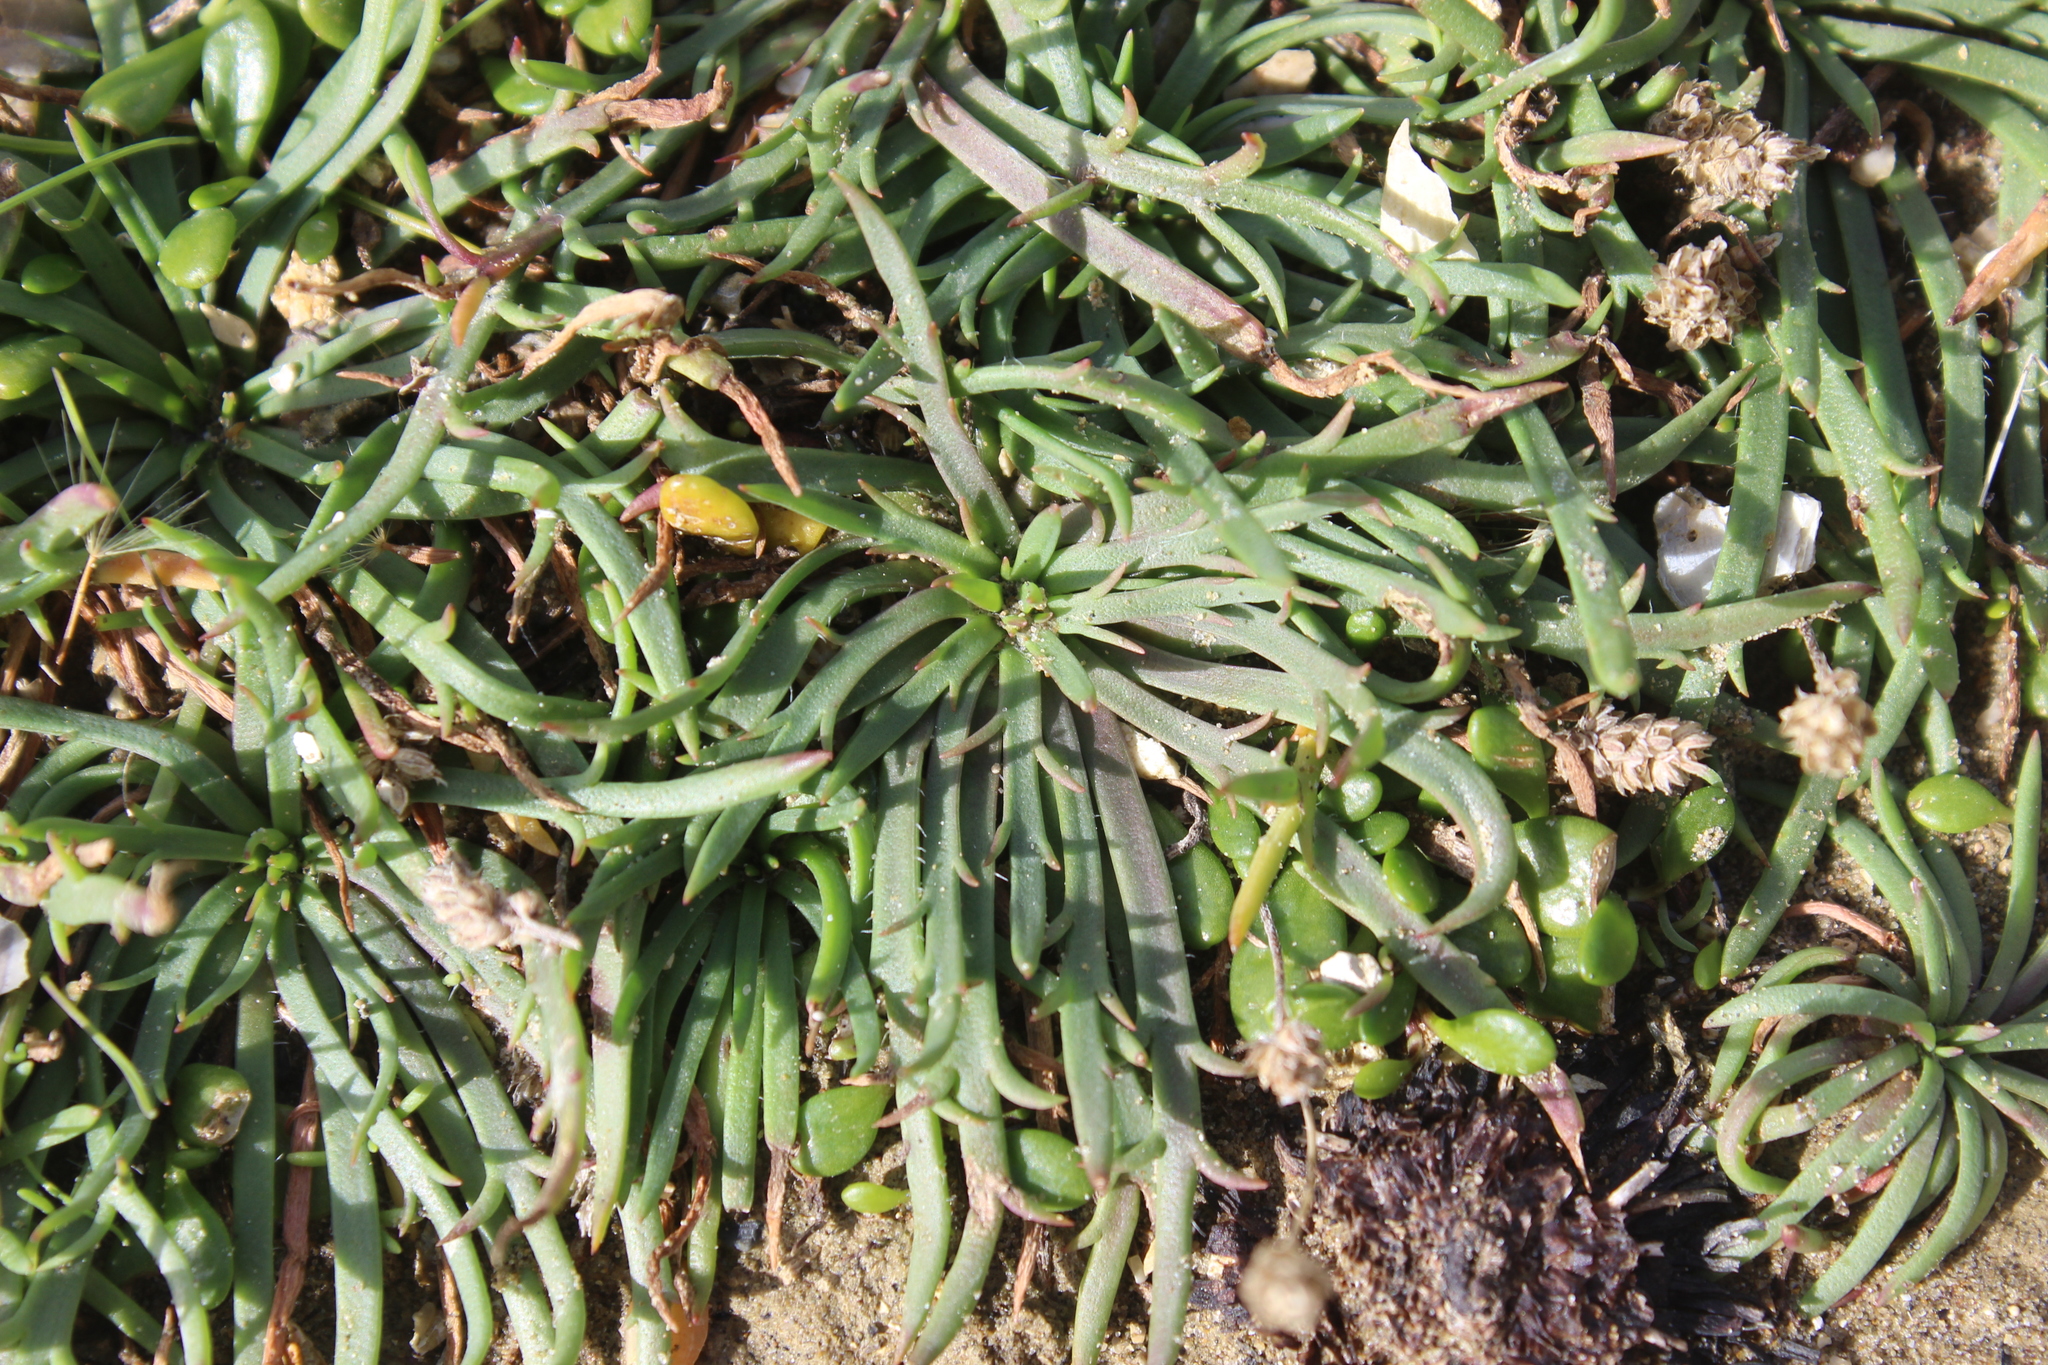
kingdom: Plantae
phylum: Tracheophyta
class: Magnoliopsida
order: Lamiales
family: Plantaginaceae
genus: Plantago
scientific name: Plantago coronopus
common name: Buck's-horn plantain
